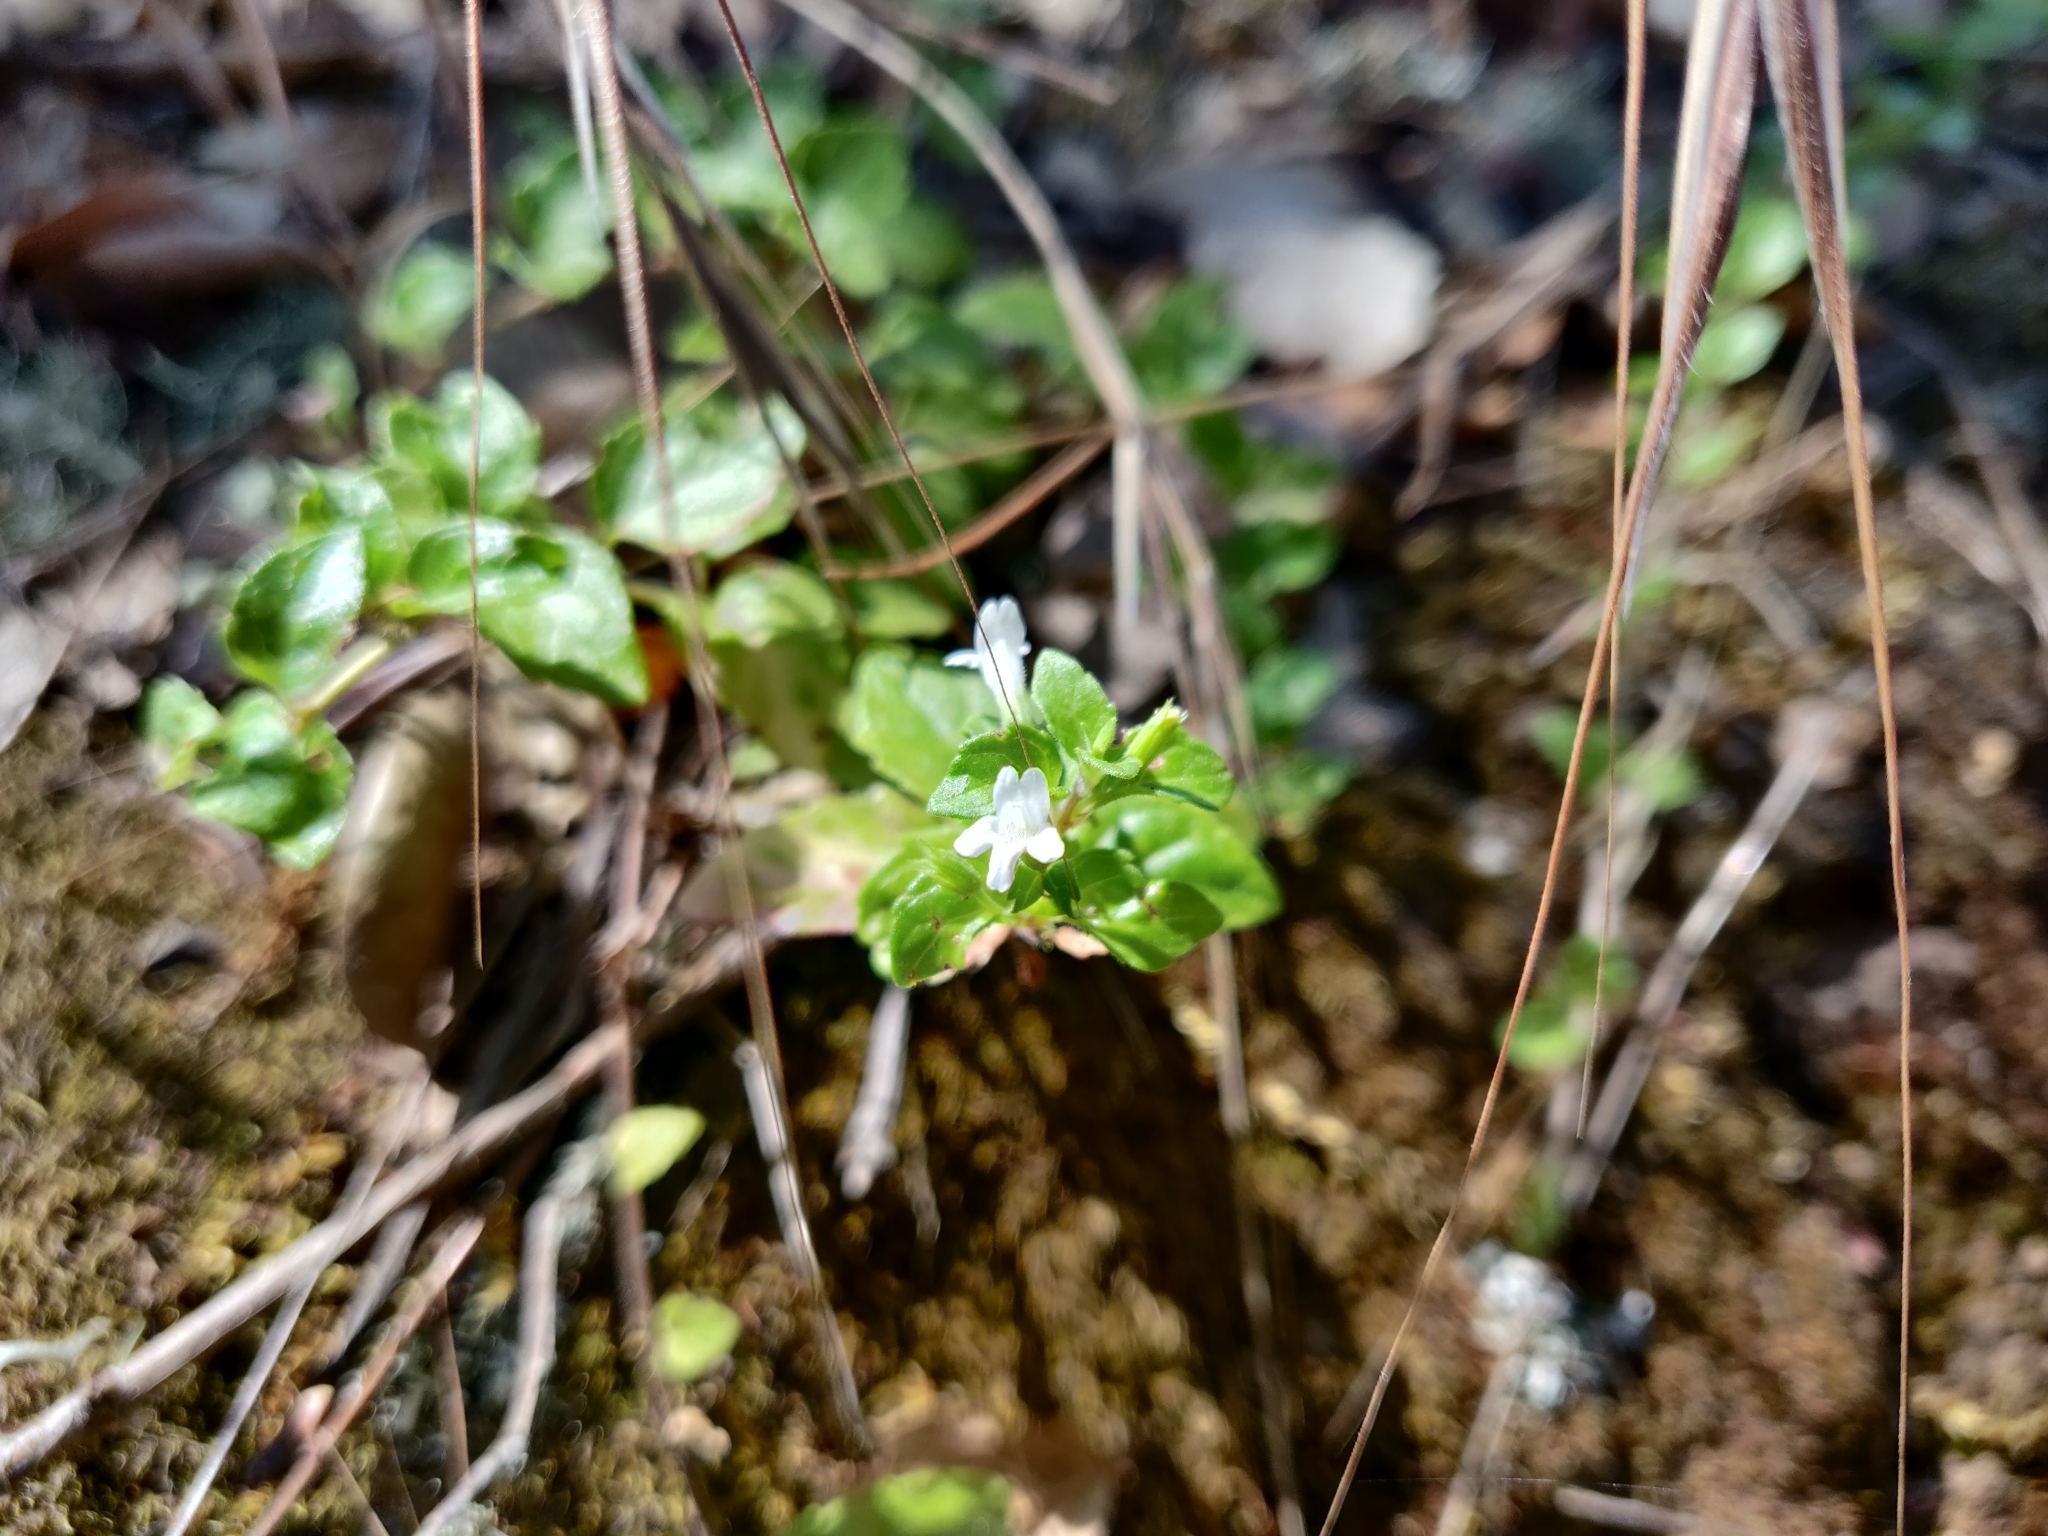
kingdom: Plantae
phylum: Tracheophyta
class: Magnoliopsida
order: Lamiales
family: Lamiaceae
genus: Micromeria
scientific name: Micromeria douglasii
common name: Yerba buena
